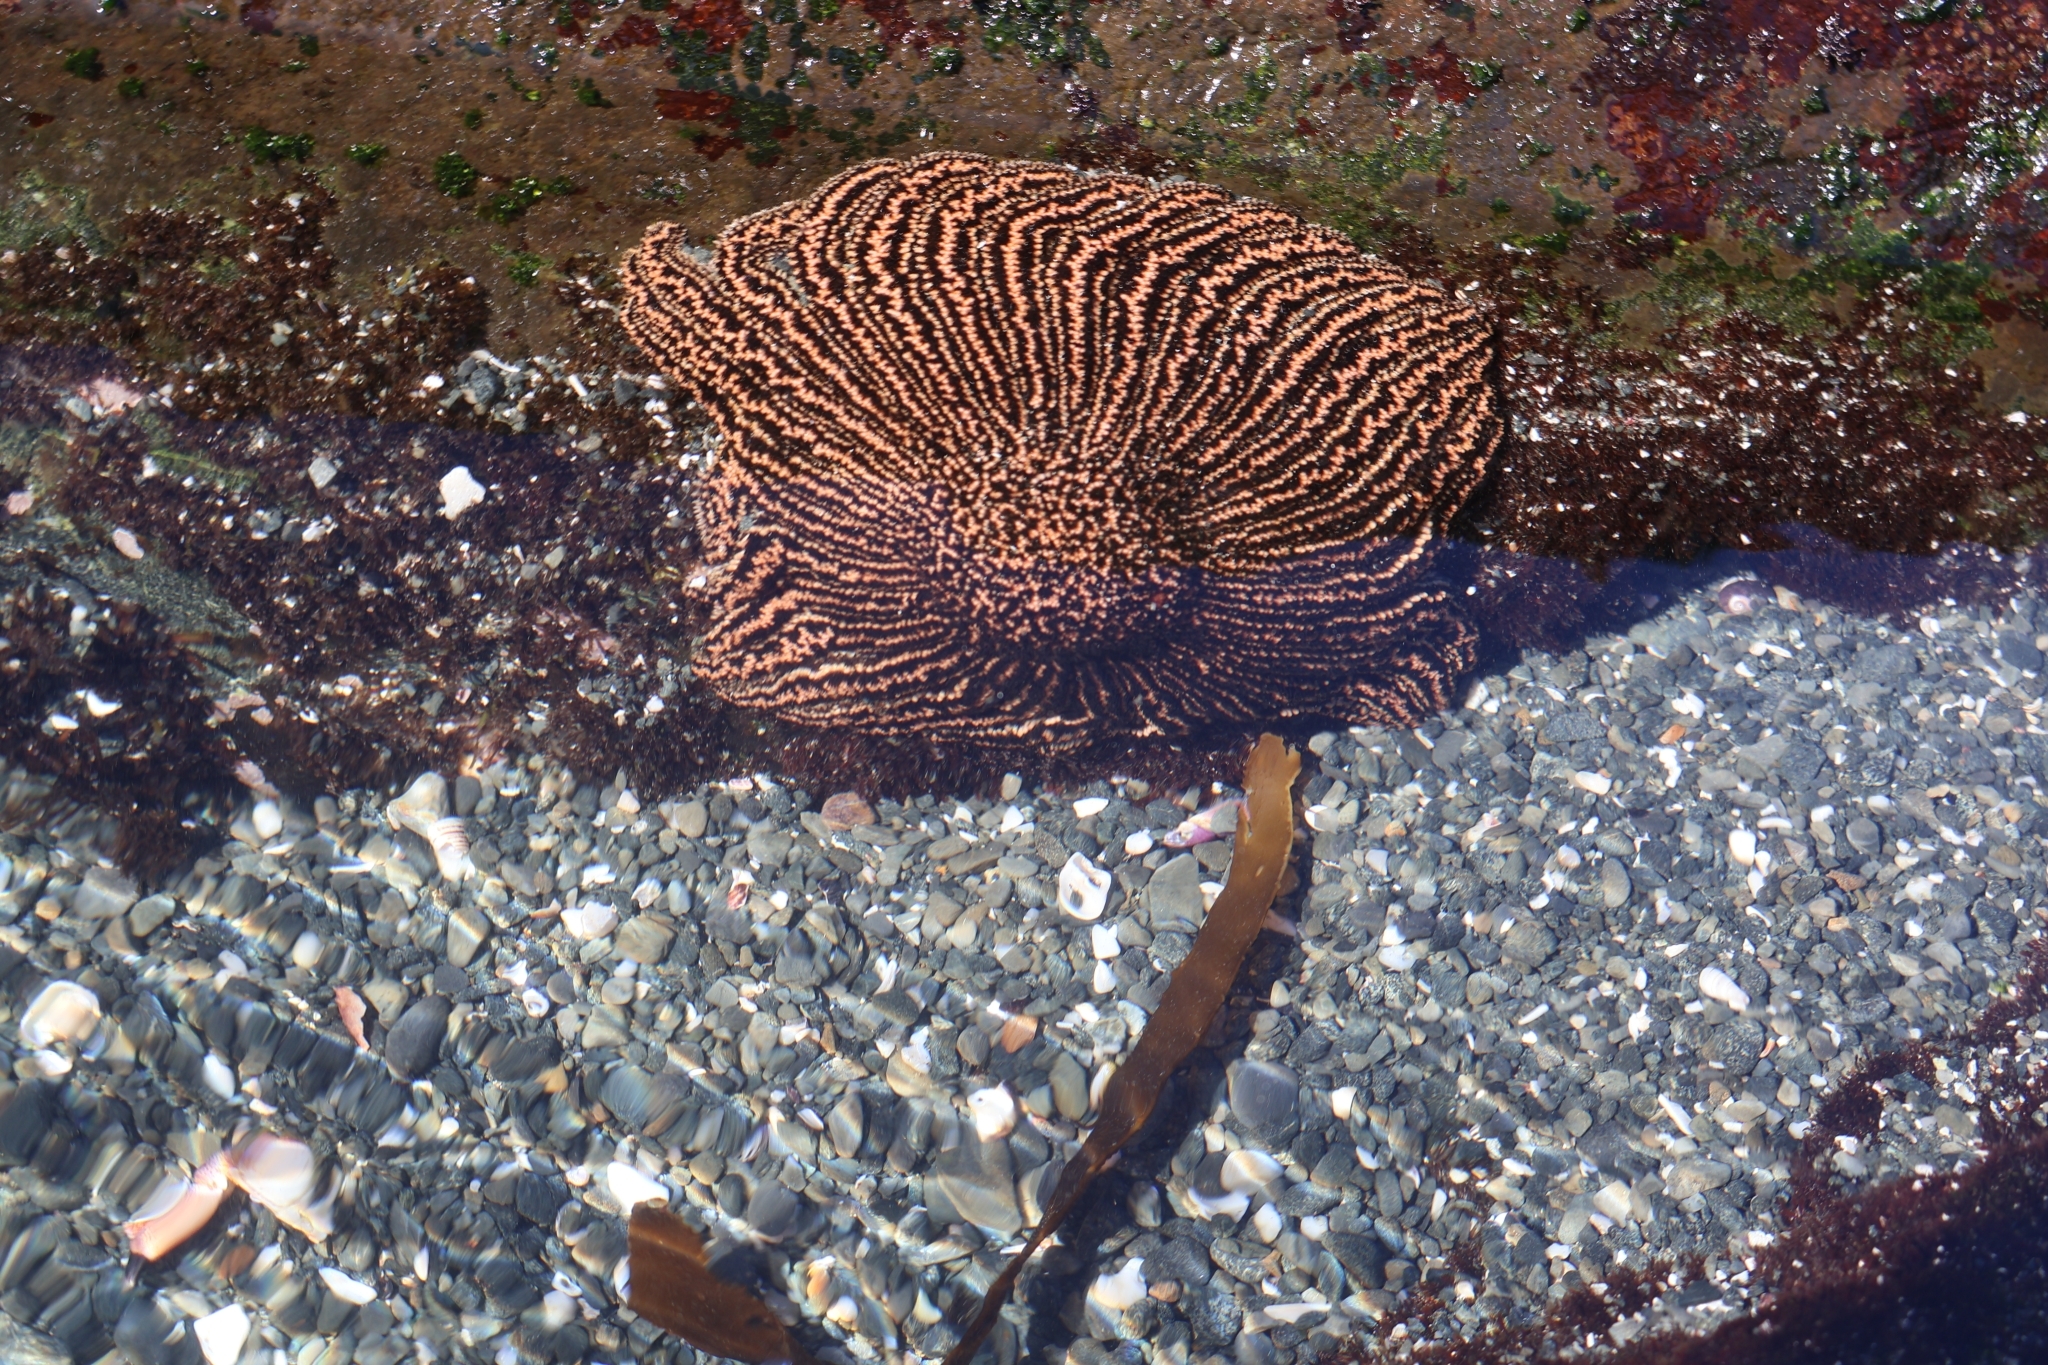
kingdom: Animalia
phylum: Echinodermata
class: Asteroidea
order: Forcipulatida
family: Heliasteridae
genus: Heliaster
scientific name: Heliaster helianthus
